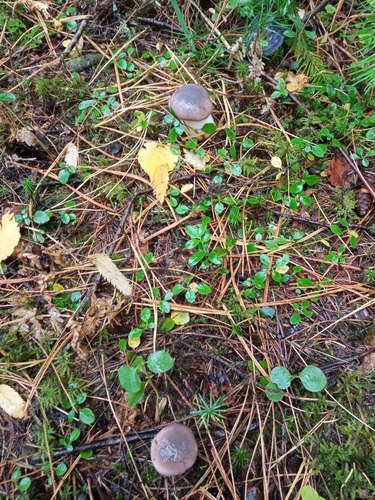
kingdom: Fungi
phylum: Basidiomycota
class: Agaricomycetes
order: Boletales
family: Gomphidiaceae
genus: Gomphidius
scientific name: Gomphidius glutinosus
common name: Slimy spike
